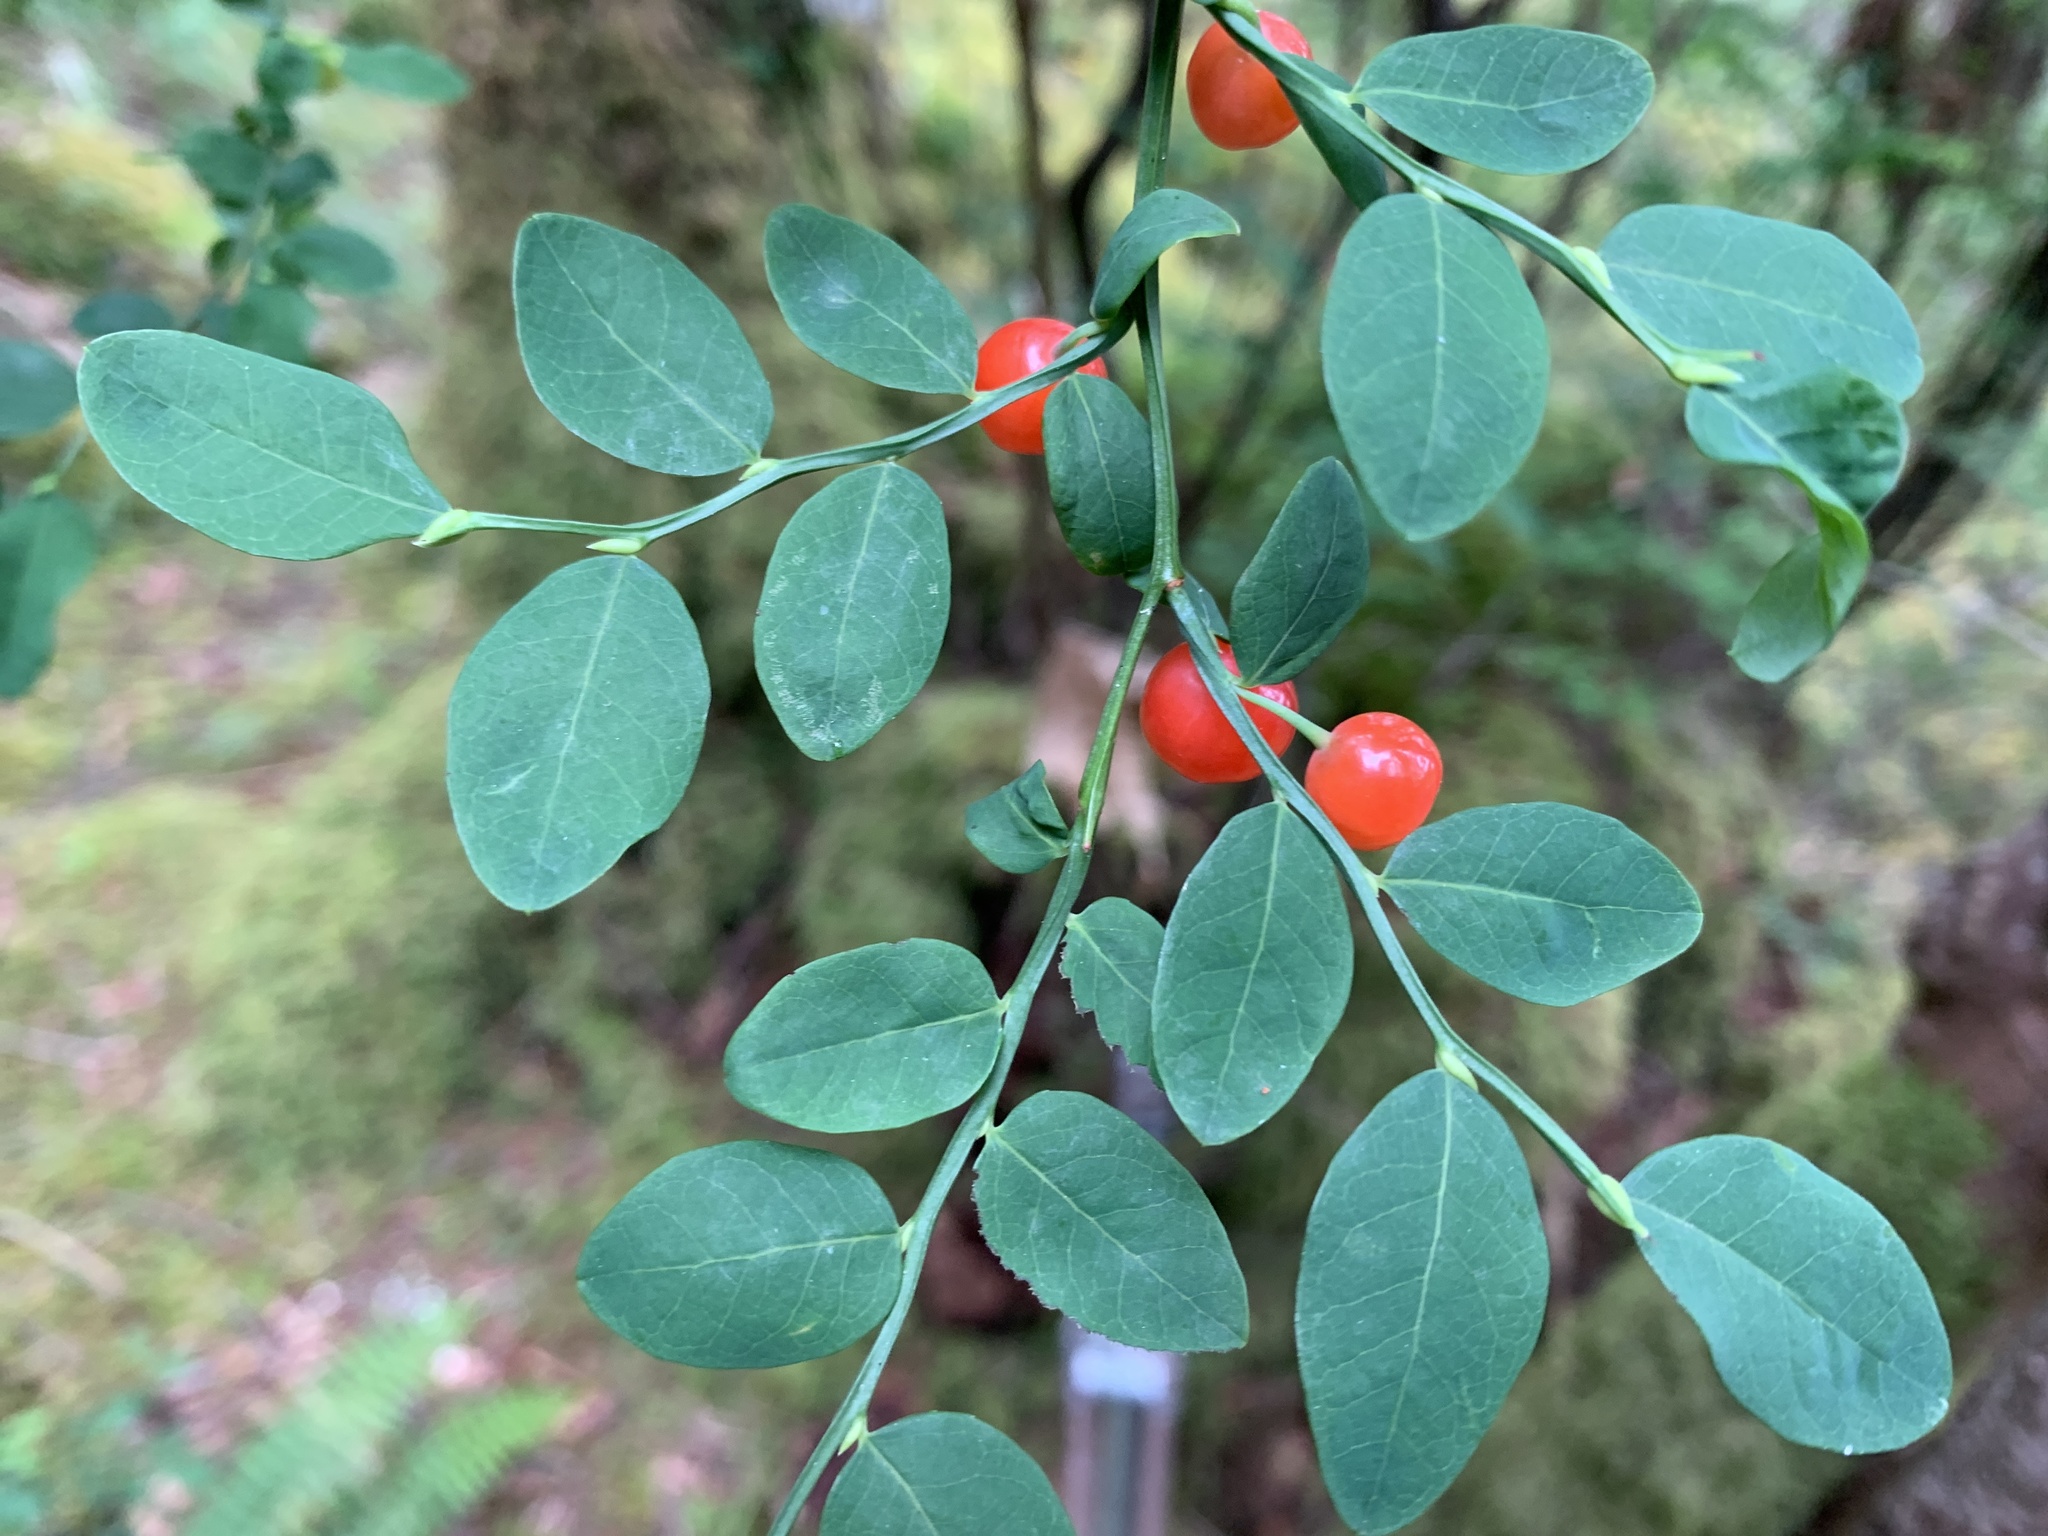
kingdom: Plantae
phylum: Tracheophyta
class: Magnoliopsida
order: Ericales
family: Ericaceae
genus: Vaccinium
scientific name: Vaccinium parvifolium
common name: Red-huckleberry
